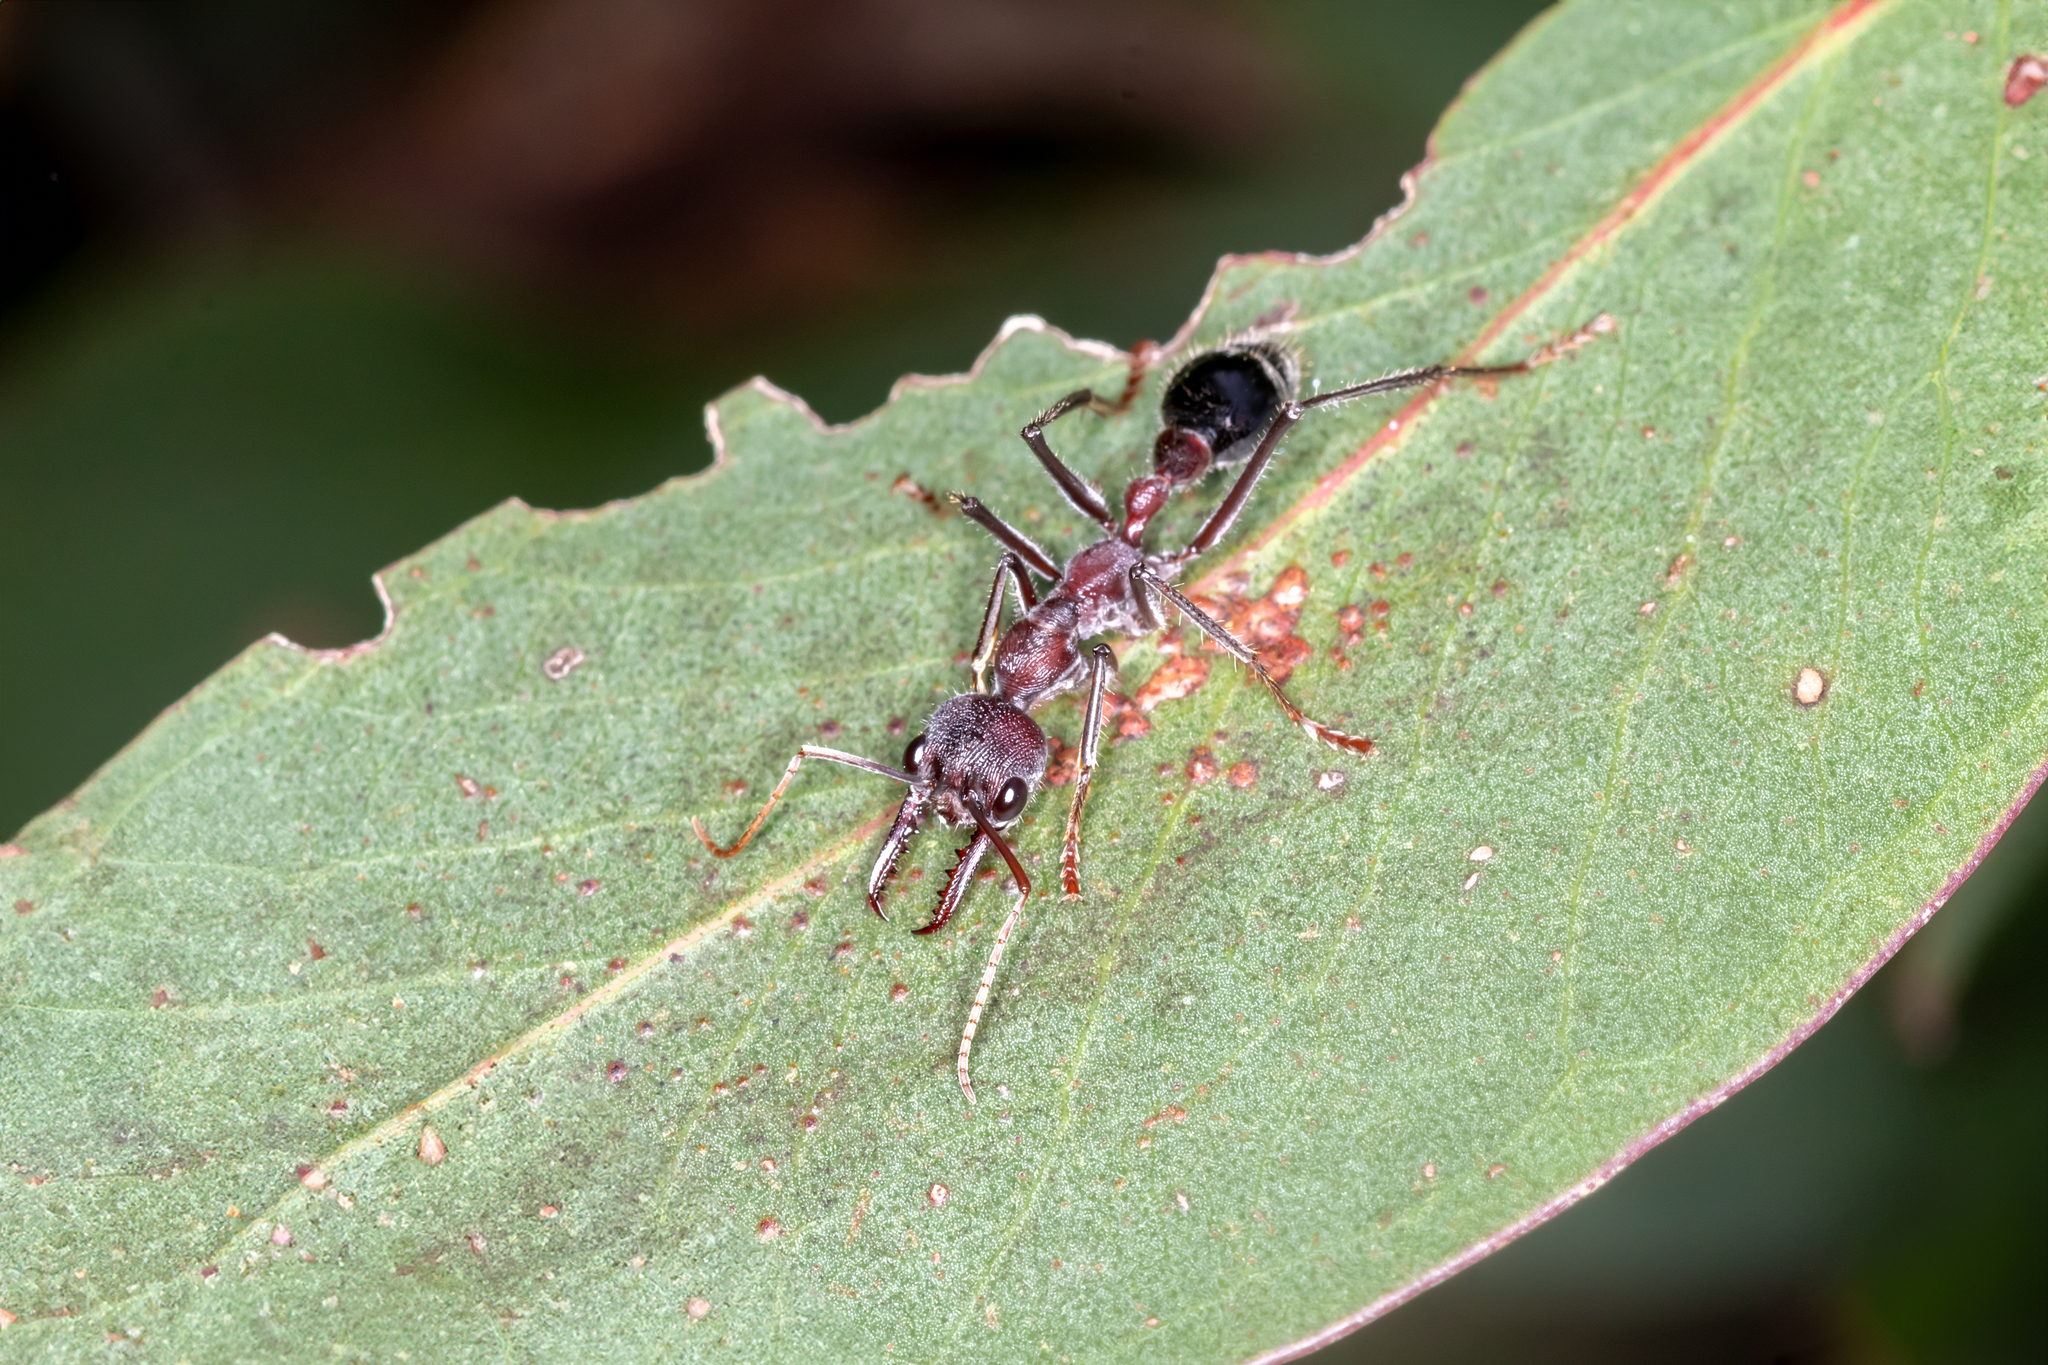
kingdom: Animalia
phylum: Arthropoda
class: Insecta
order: Hymenoptera
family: Formicidae
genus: Myrmecia
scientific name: Myrmecia simillima
